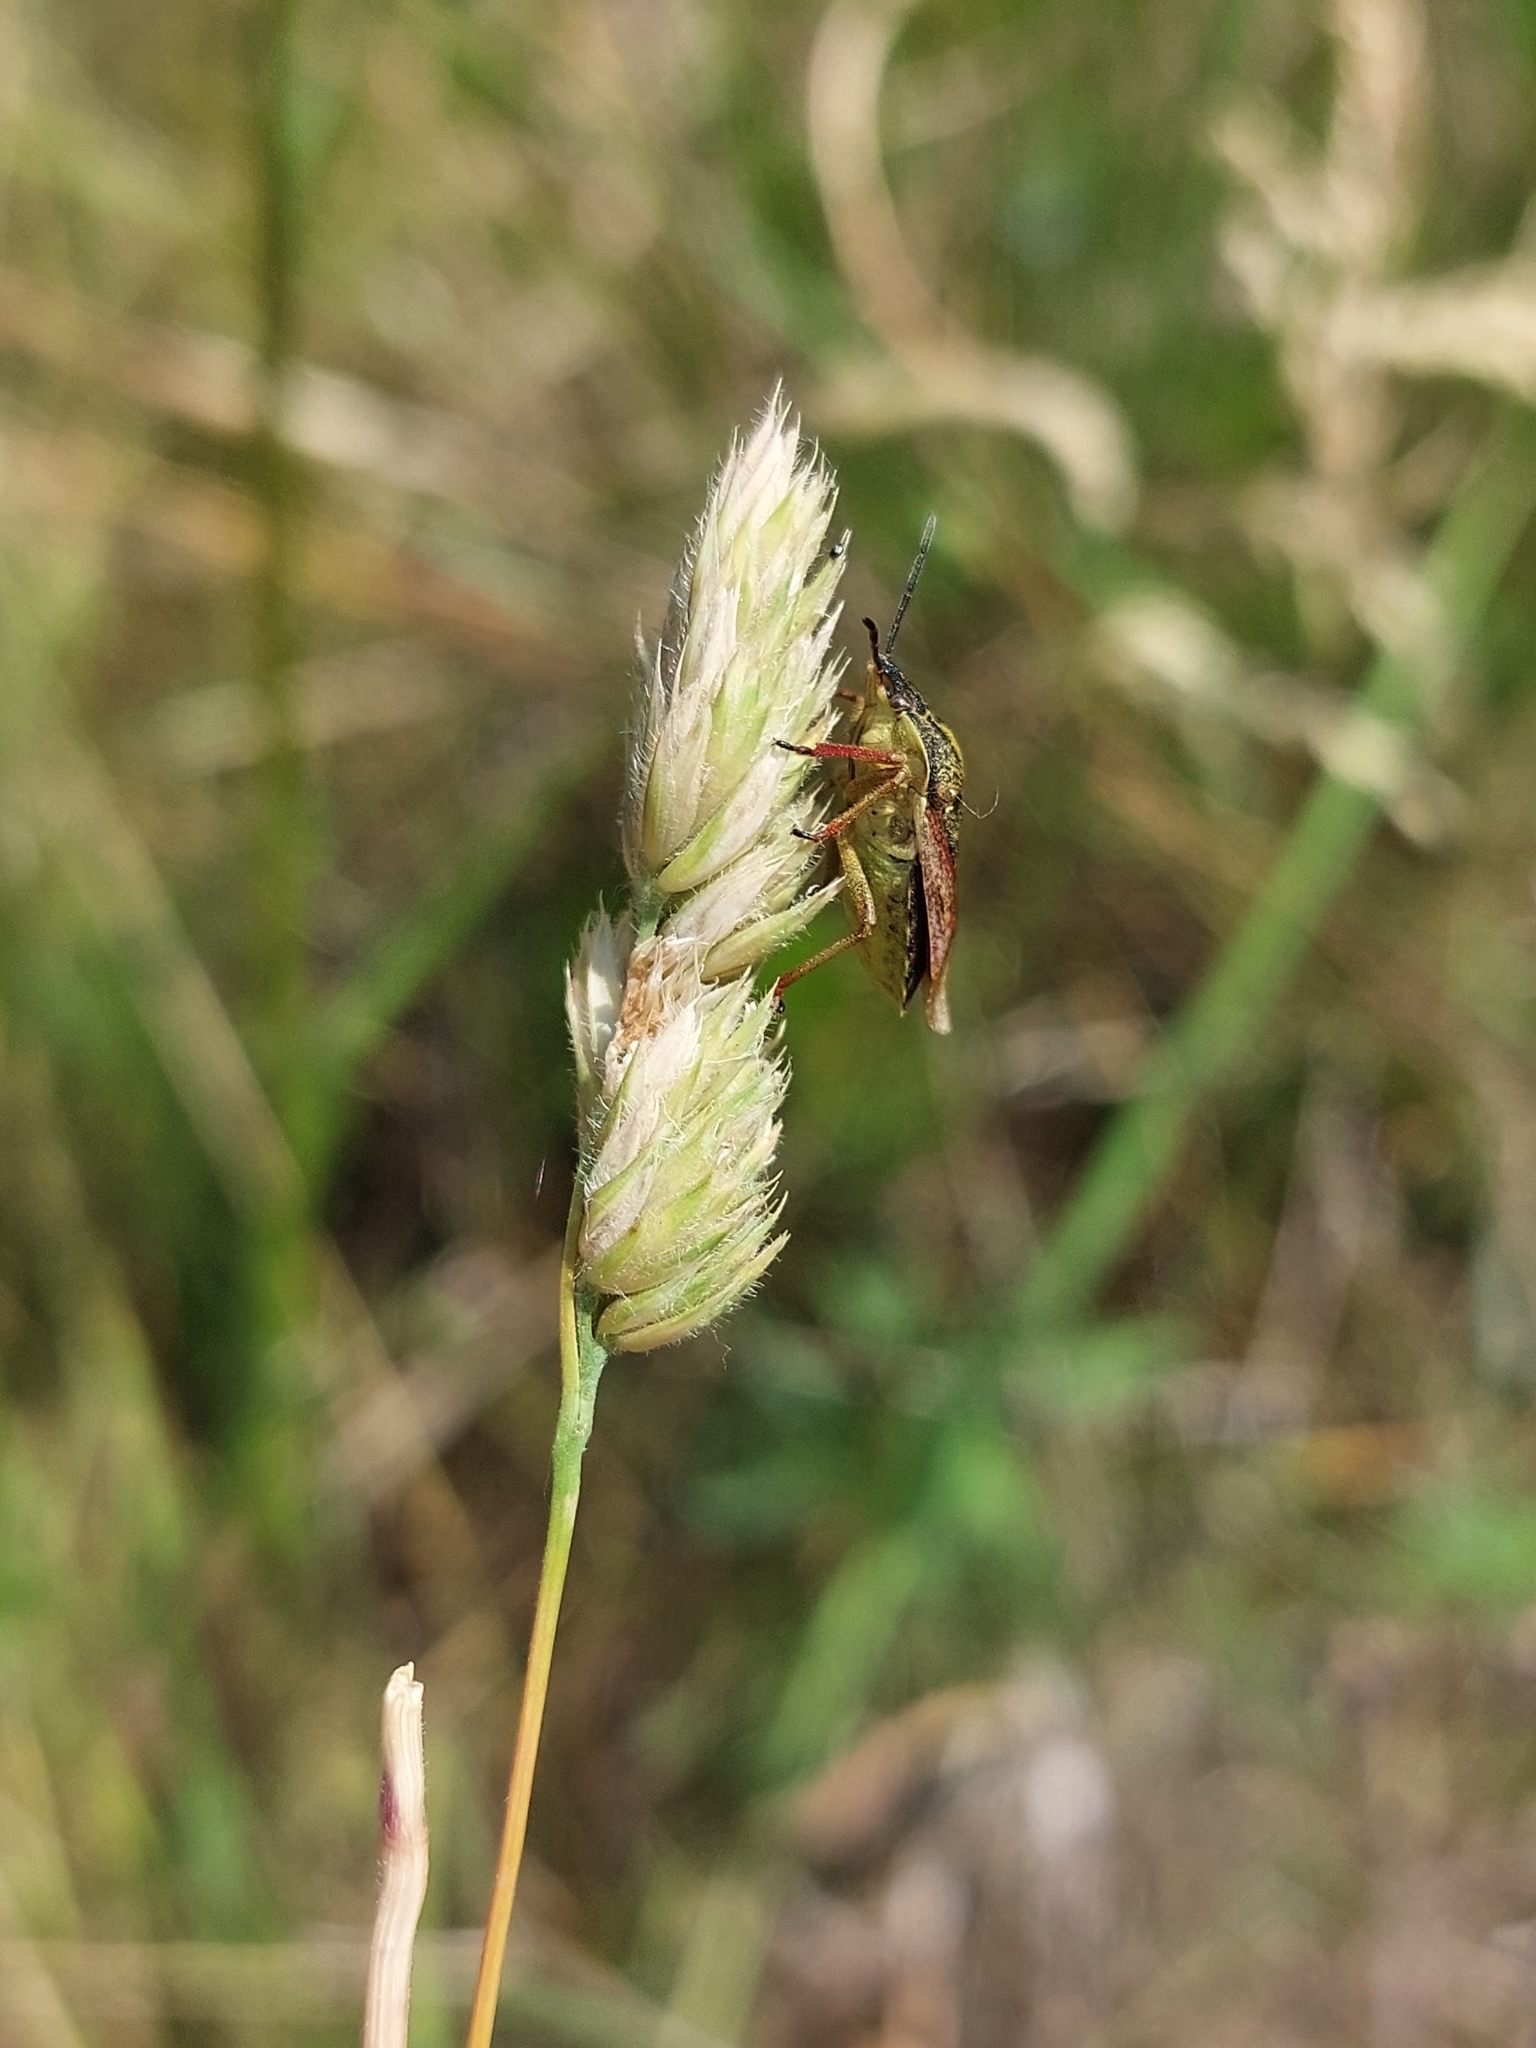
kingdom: Animalia
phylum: Arthropoda
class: Insecta
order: Hemiptera
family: Pentatomidae
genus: Carpocoris
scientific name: Carpocoris purpureipennis
